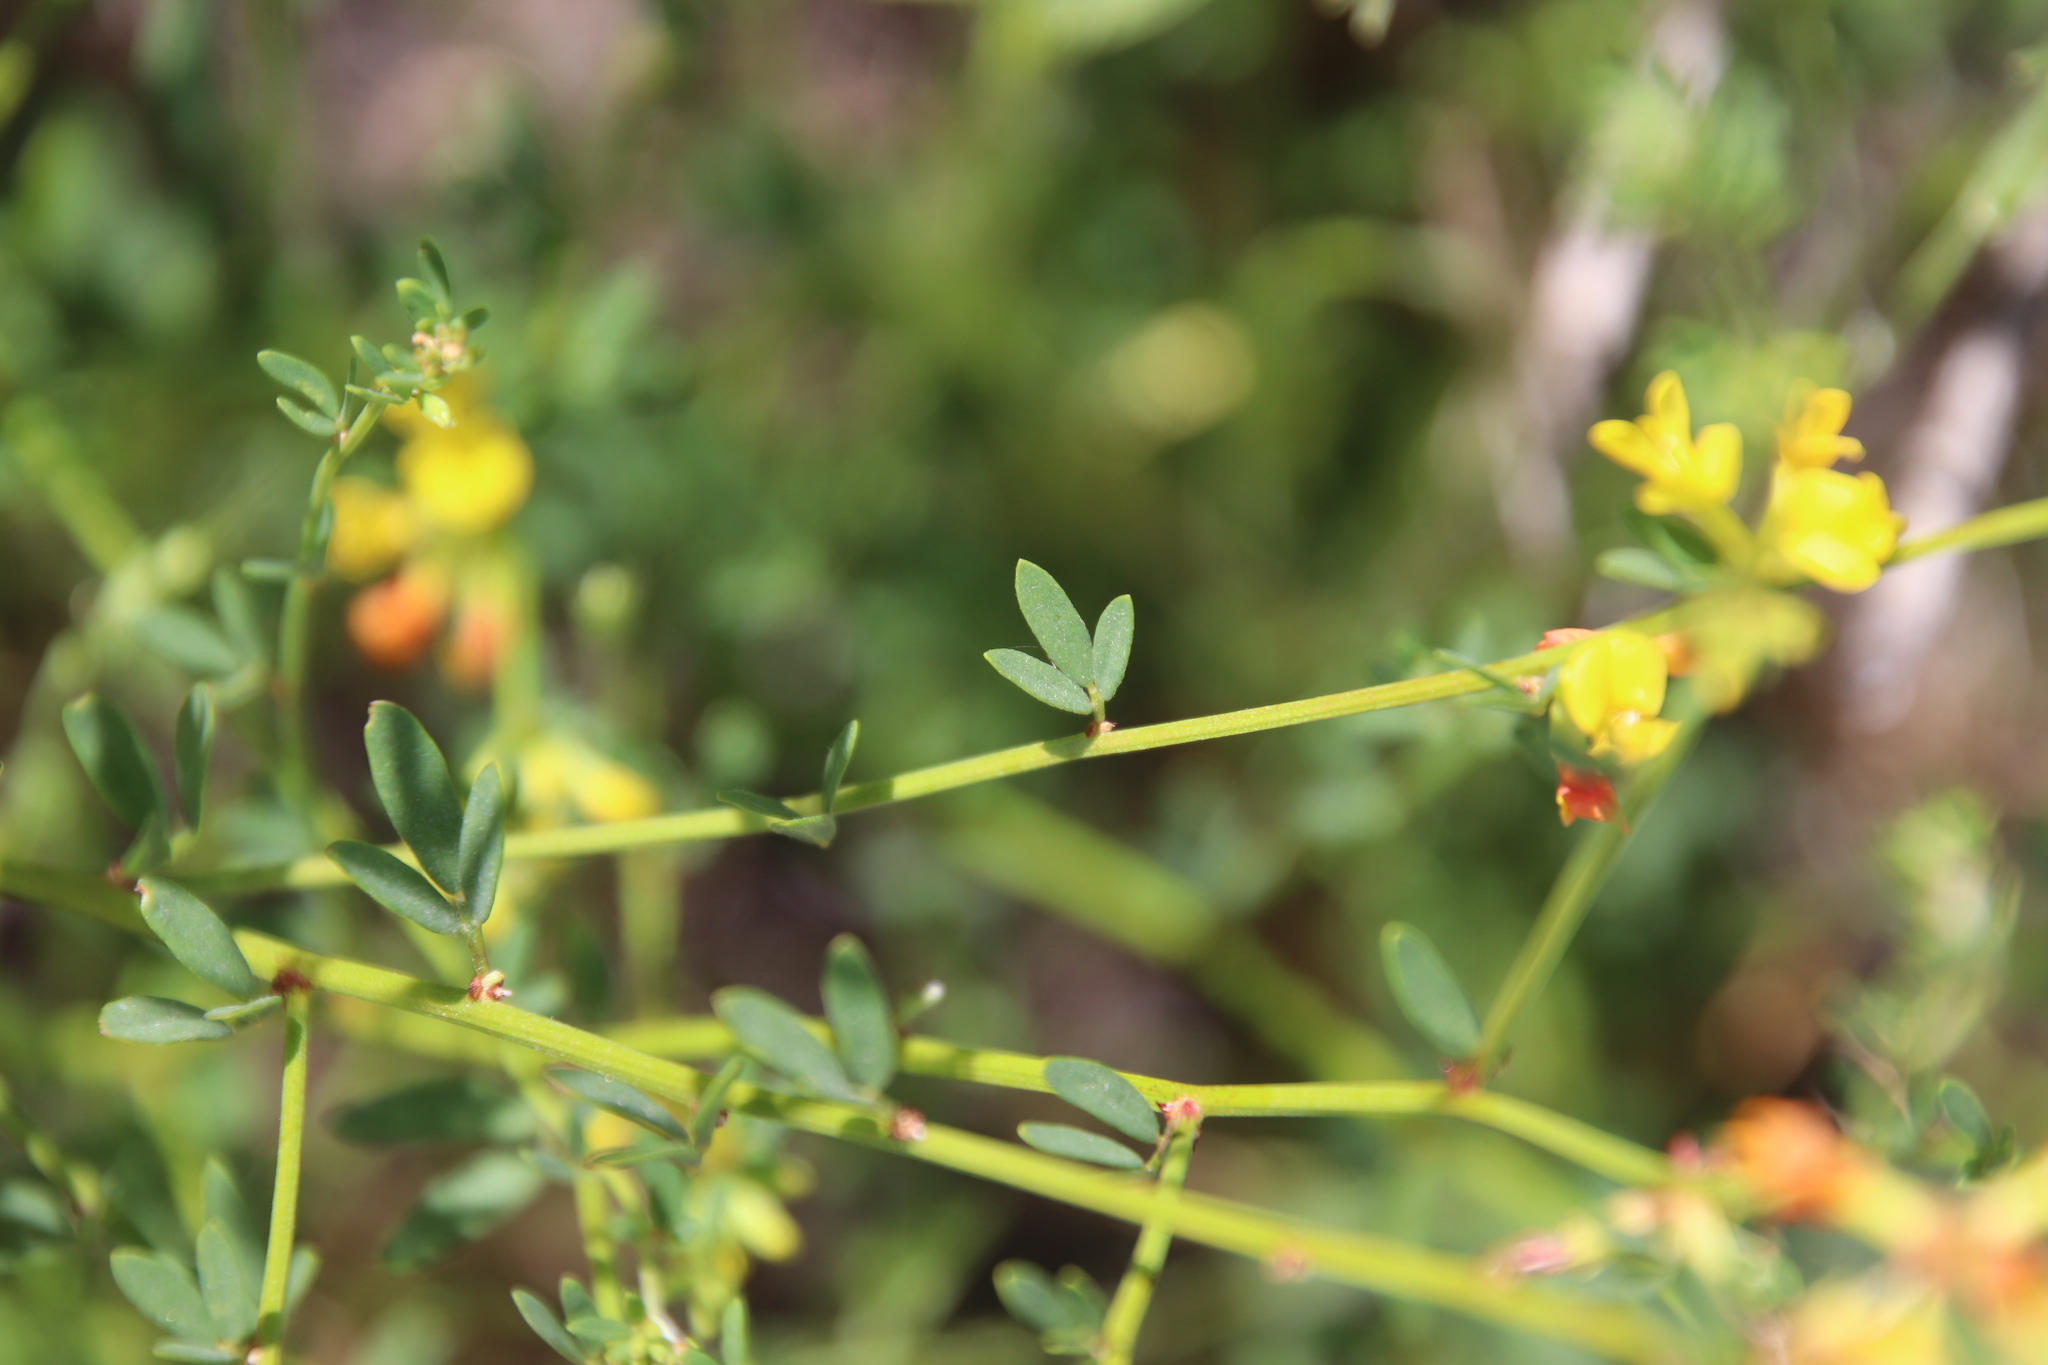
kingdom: Plantae
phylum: Tracheophyta
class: Magnoliopsida
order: Fabales
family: Fabaceae
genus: Acmispon
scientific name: Acmispon glaber
